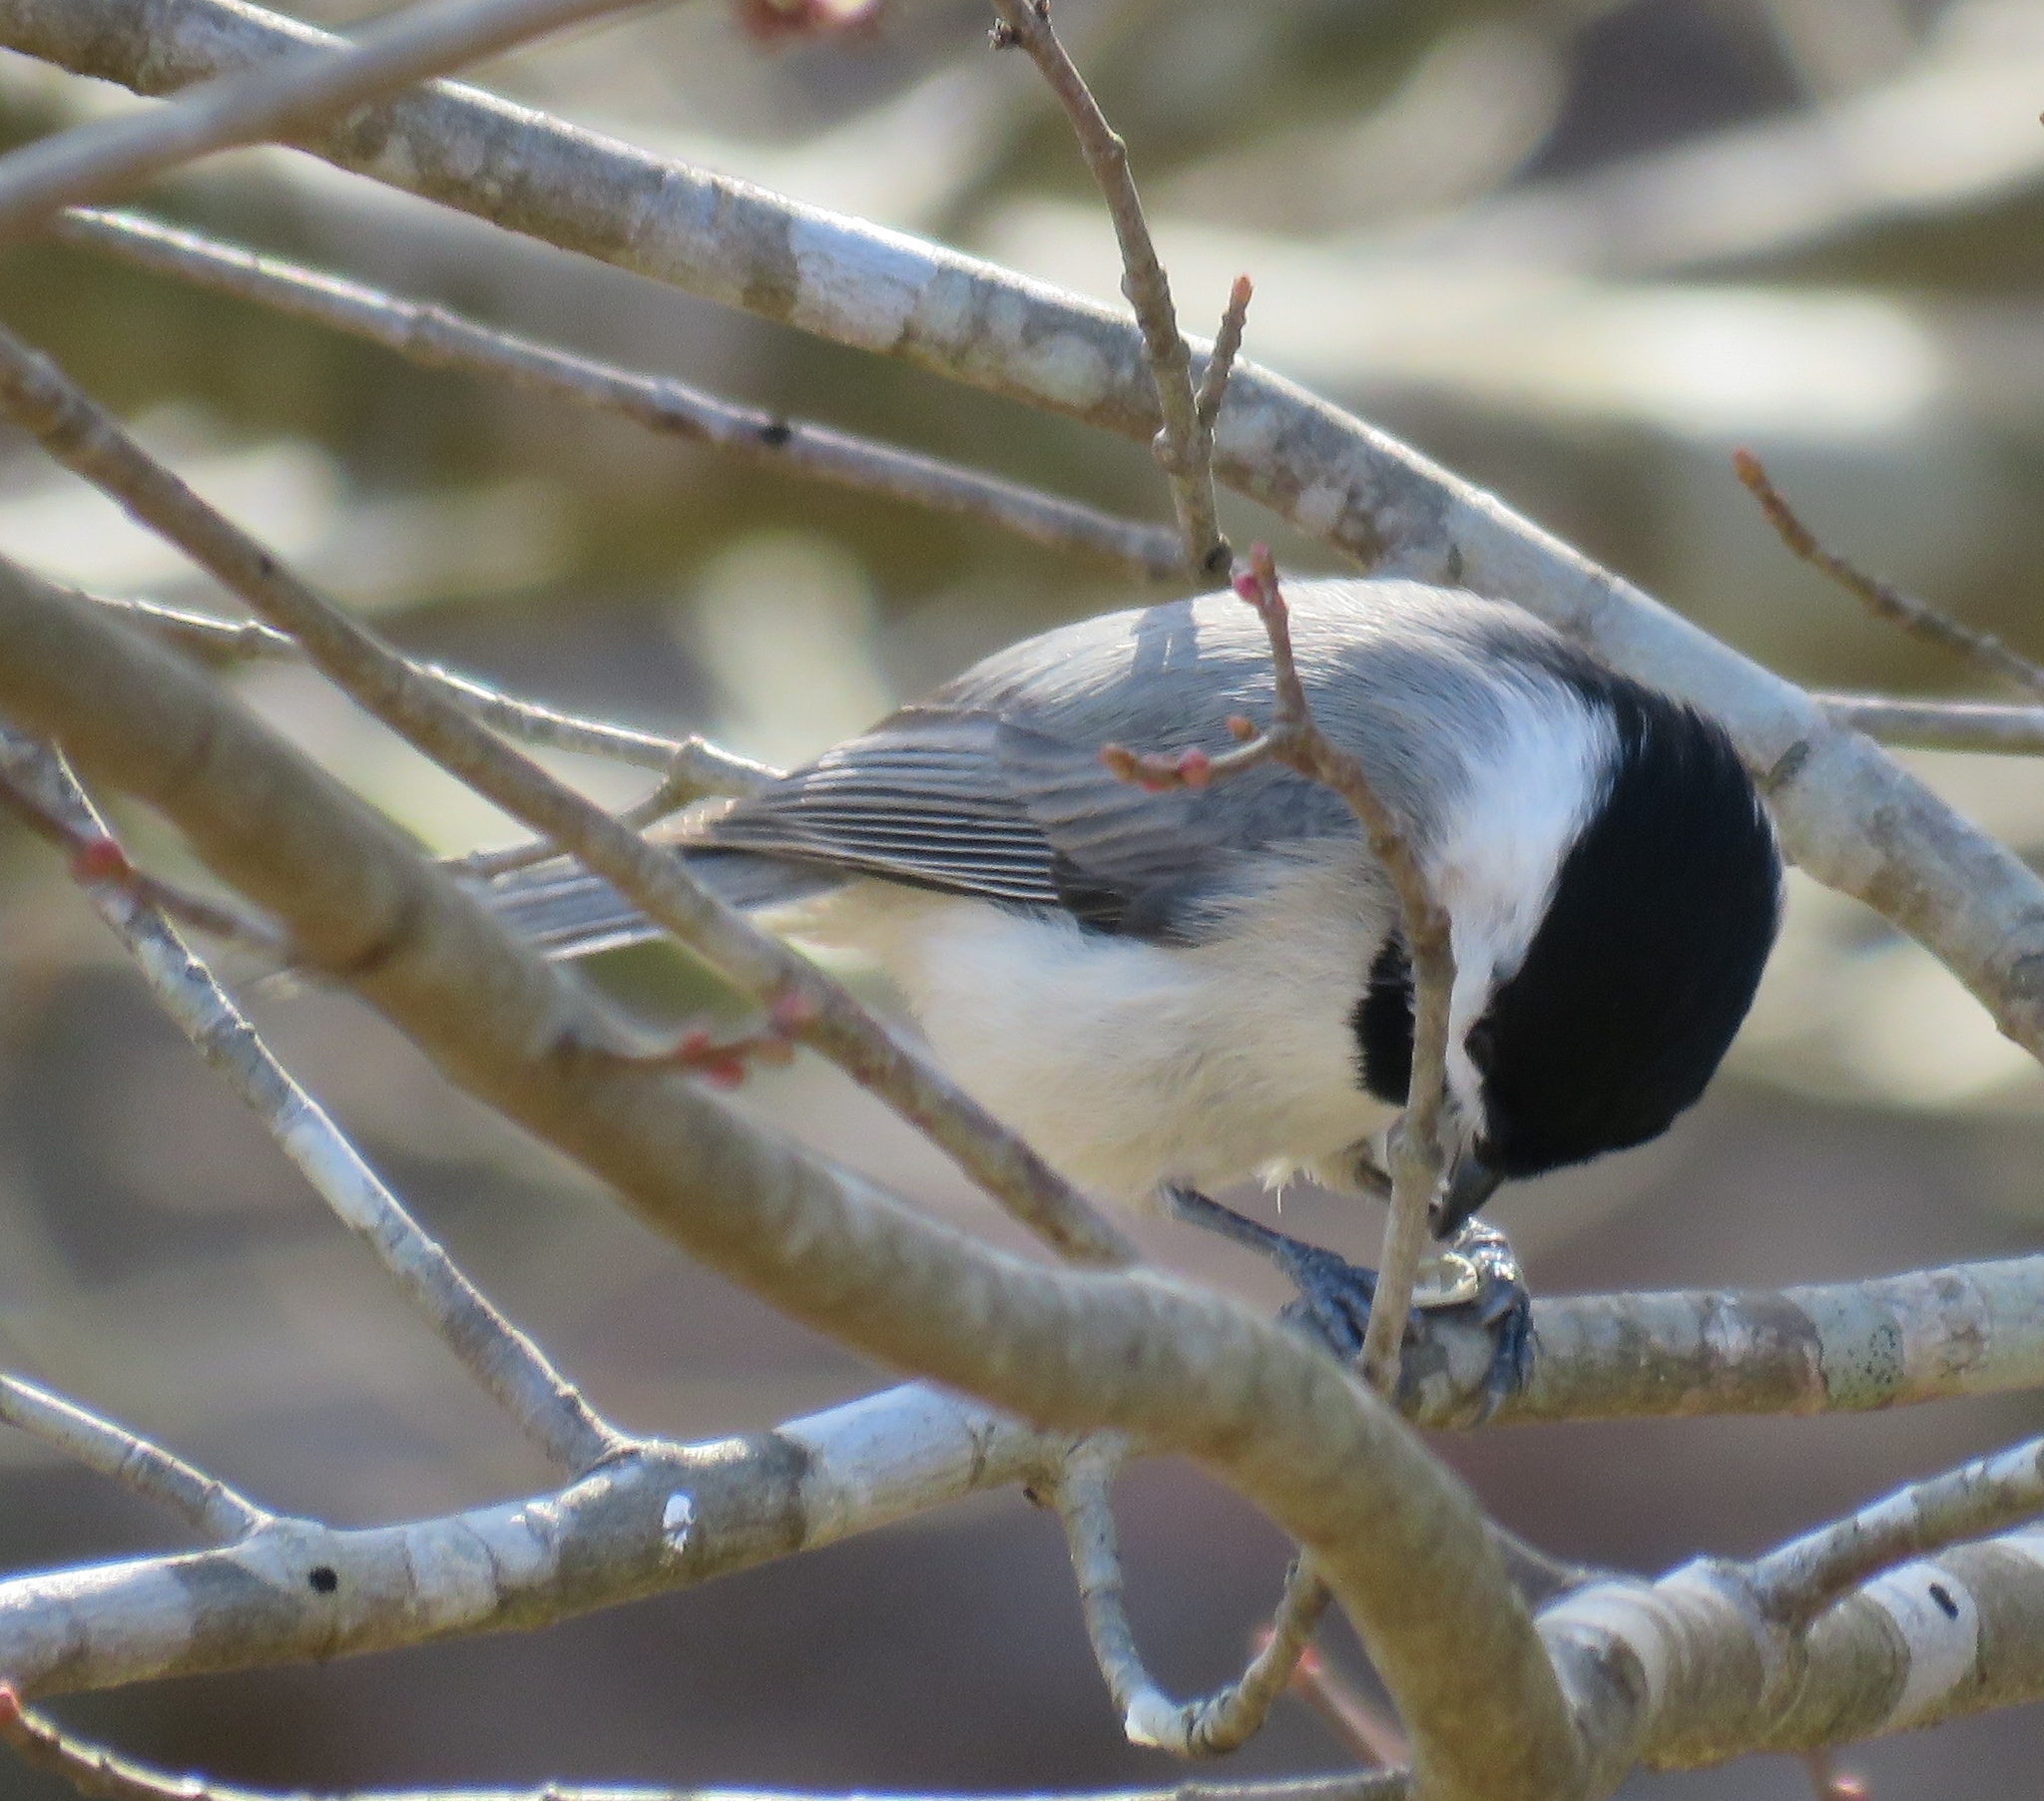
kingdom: Animalia
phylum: Chordata
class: Aves
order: Passeriformes
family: Paridae
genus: Poecile
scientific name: Poecile carolinensis
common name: Carolina chickadee
